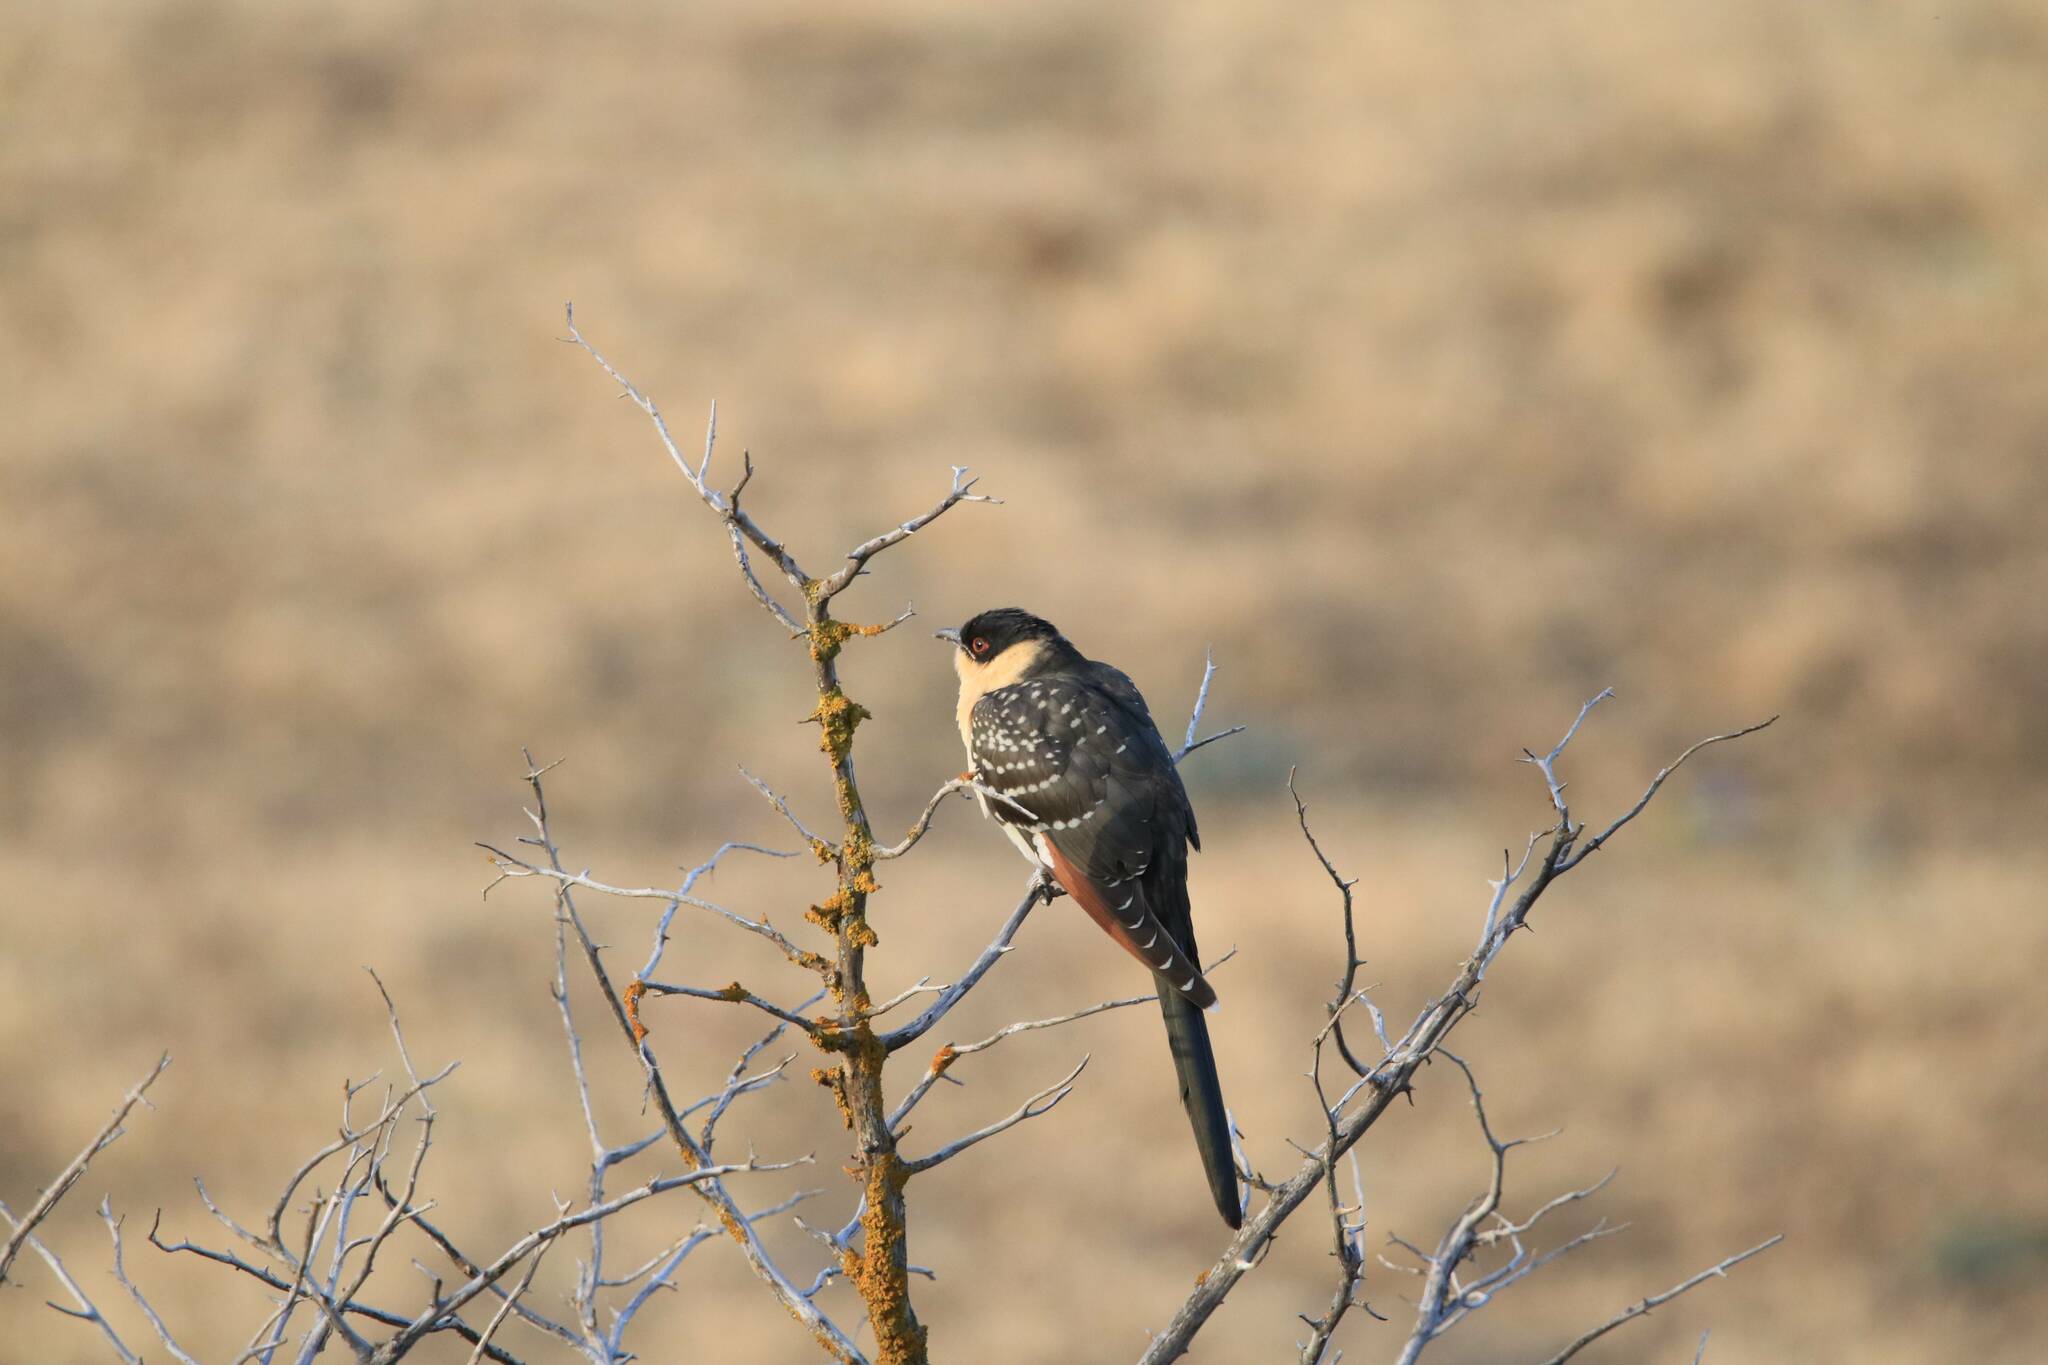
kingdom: Animalia
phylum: Chordata
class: Aves
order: Cuculiformes
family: Cuculidae
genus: Clamator
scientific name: Clamator glandarius
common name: Great spotted cuckoo
